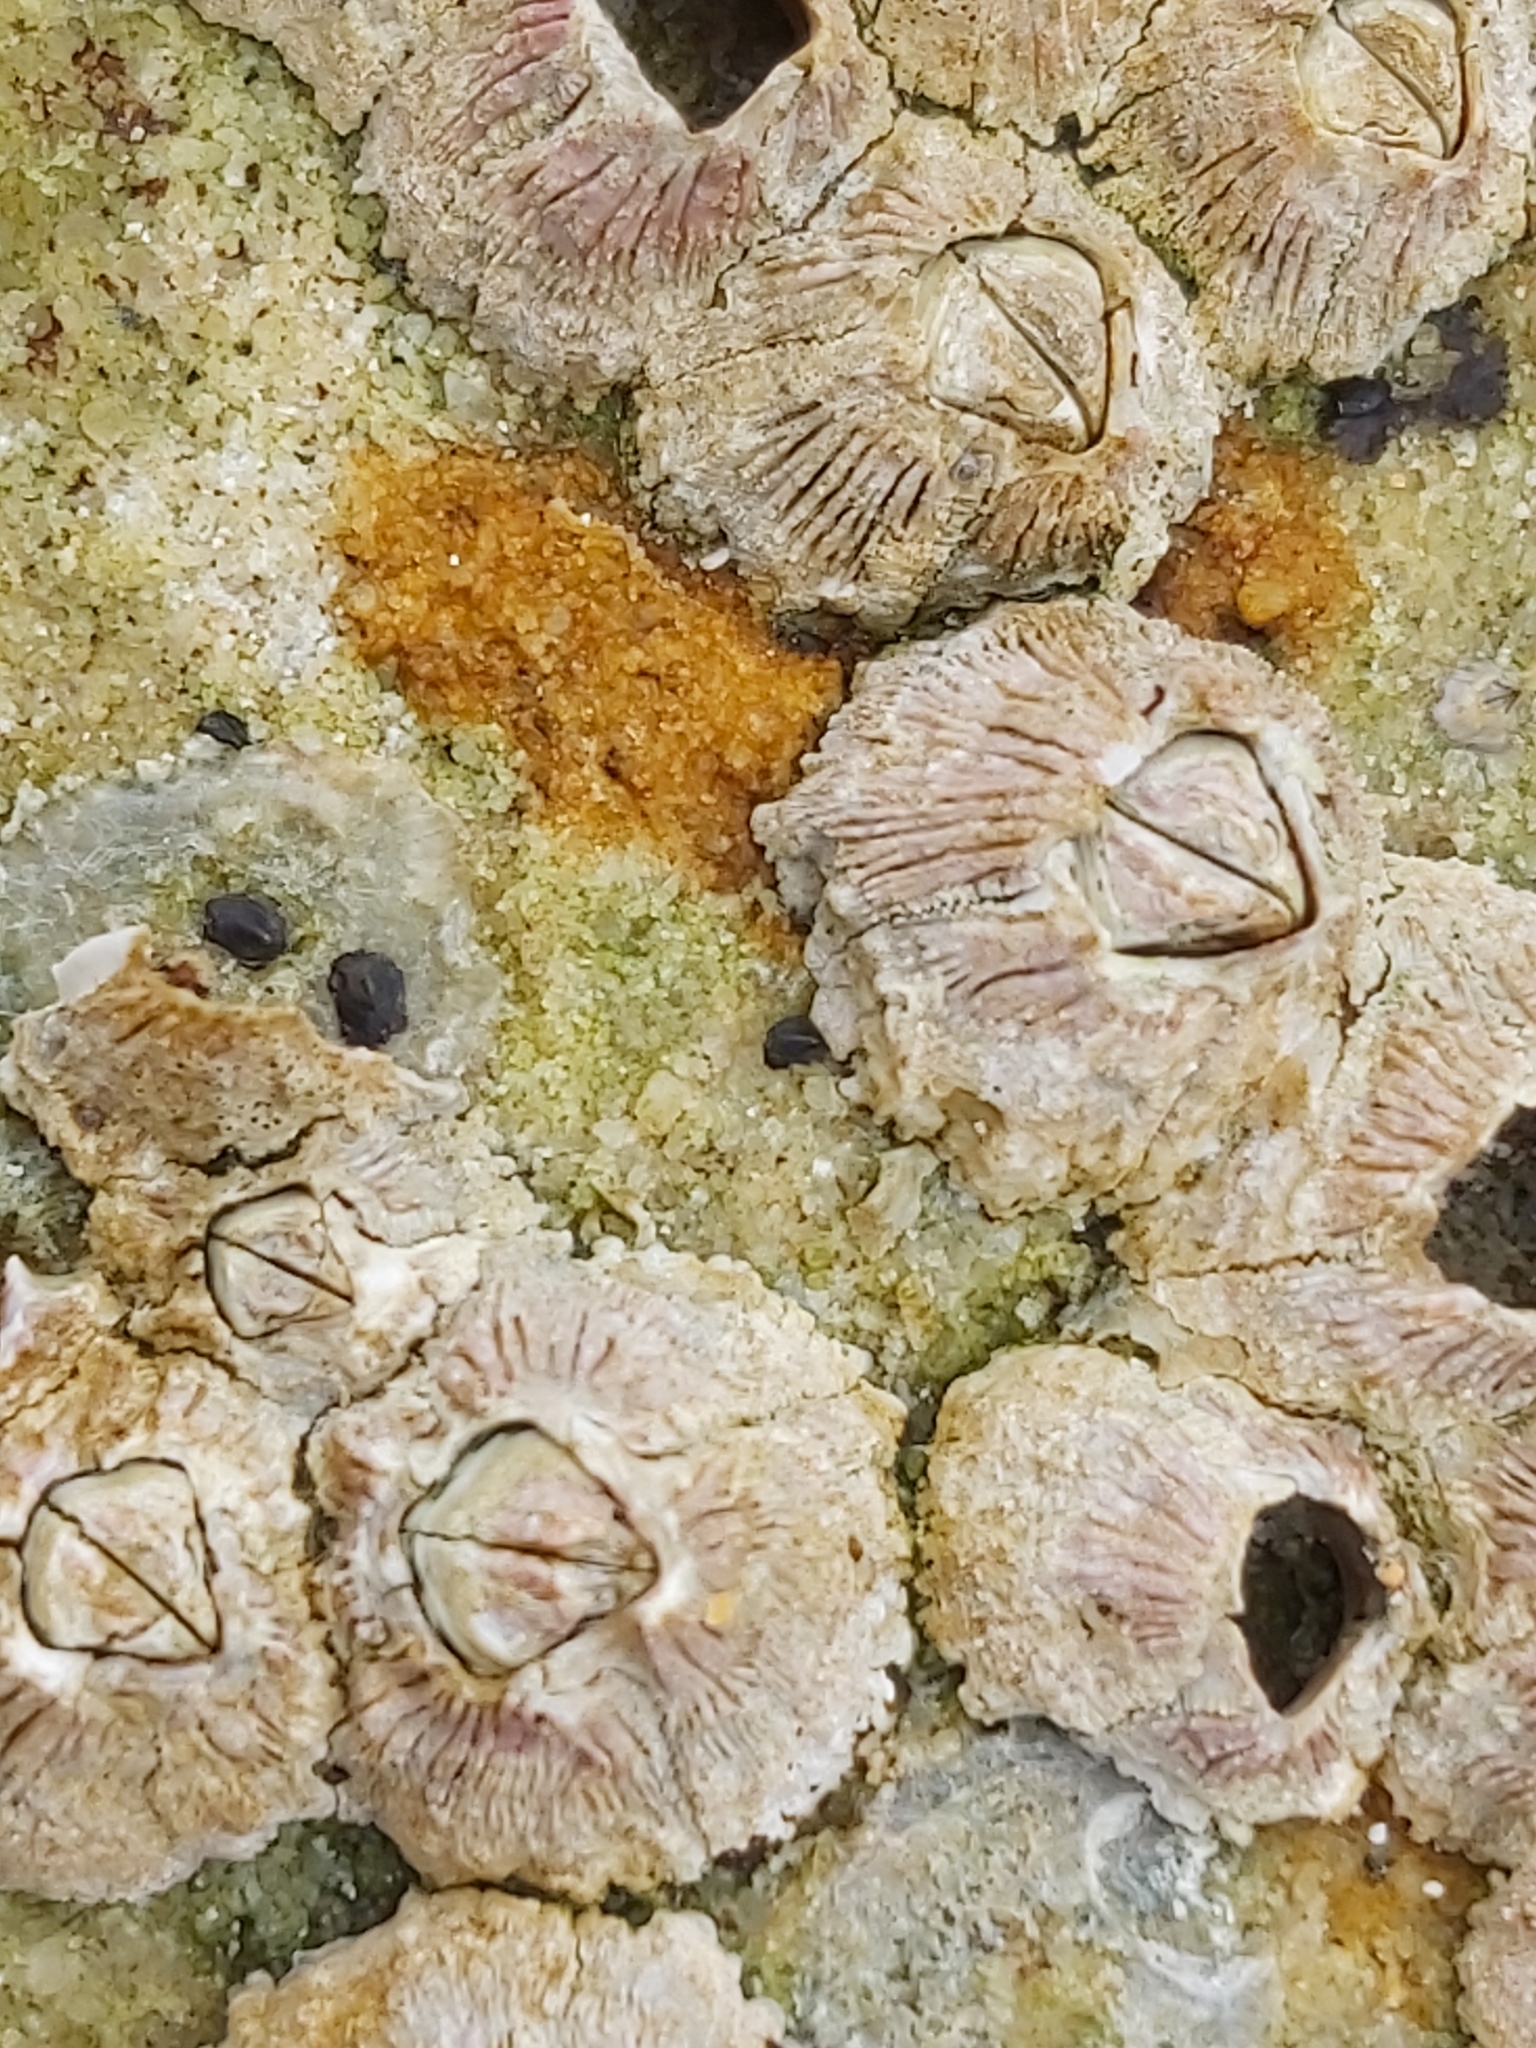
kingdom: Animalia
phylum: Arthropoda
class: Maxillopoda
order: Sessilia
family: Tetraclitidae
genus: Tesseropora
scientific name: Tesseropora rosea
